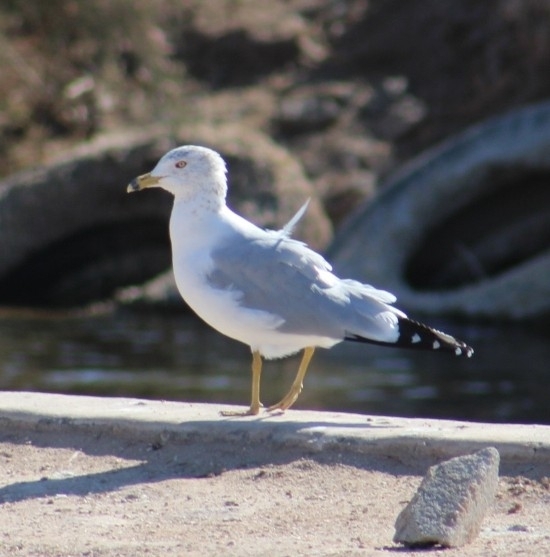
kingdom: Animalia
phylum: Chordata
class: Aves
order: Charadriiformes
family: Laridae
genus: Larus
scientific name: Larus delawarensis
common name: Ring-billed gull
